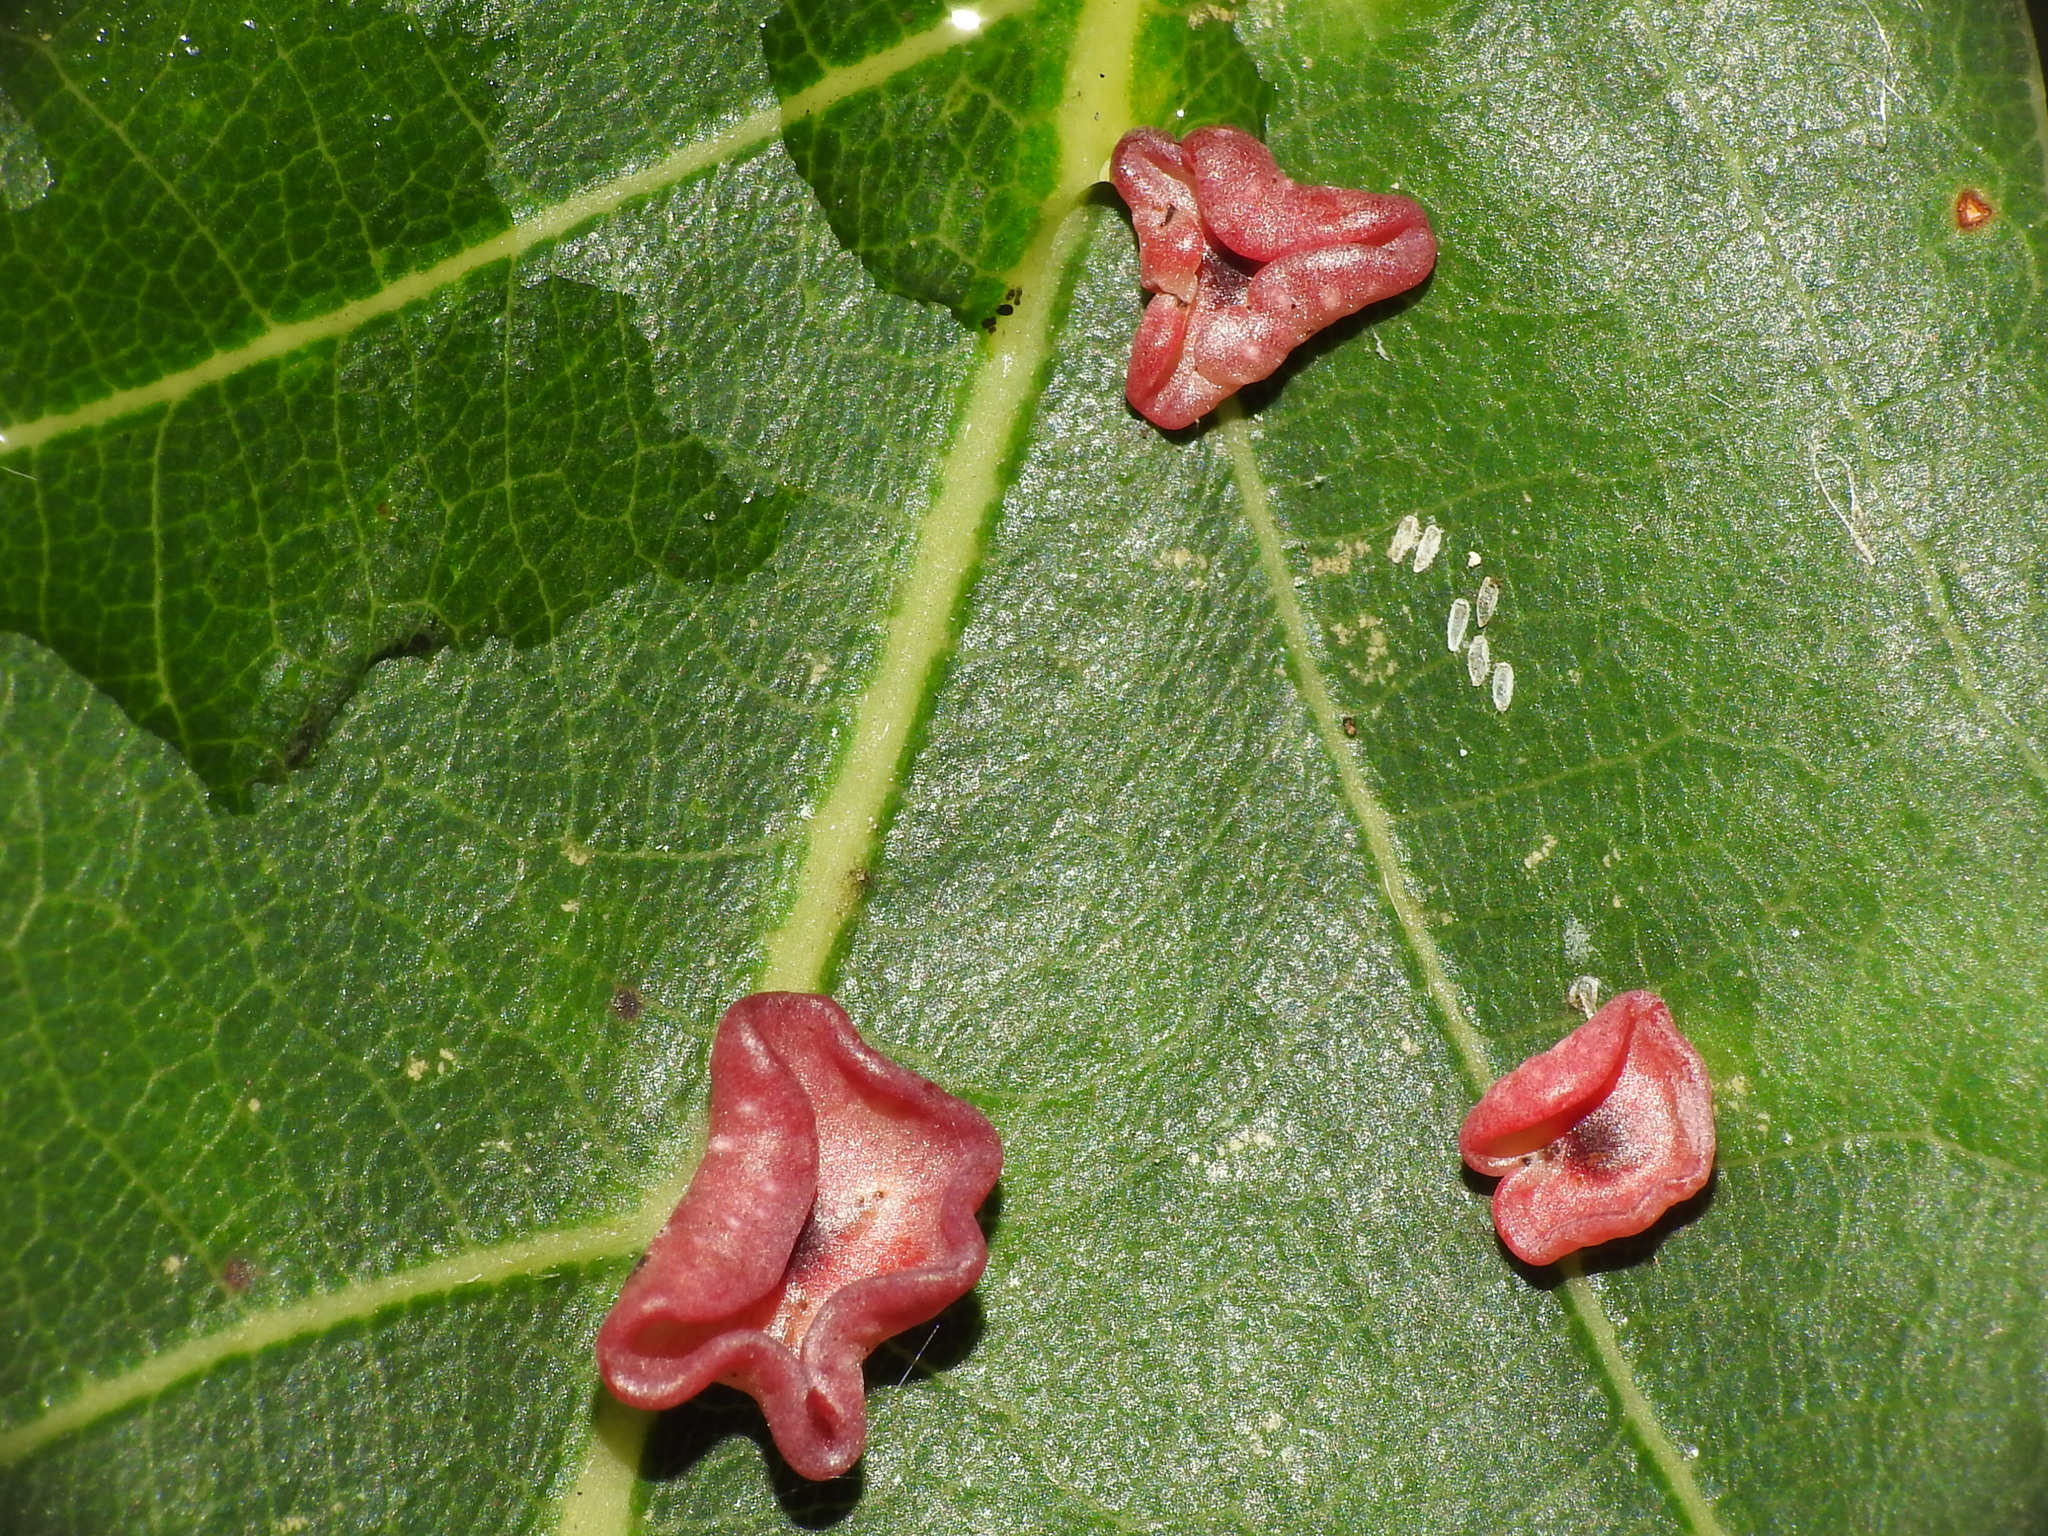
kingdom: Animalia
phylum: Arthropoda
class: Insecta
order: Hymenoptera
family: Cynipidae
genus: Neuroterus
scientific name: Neuroterus albipes
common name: Smooth spangle gall
